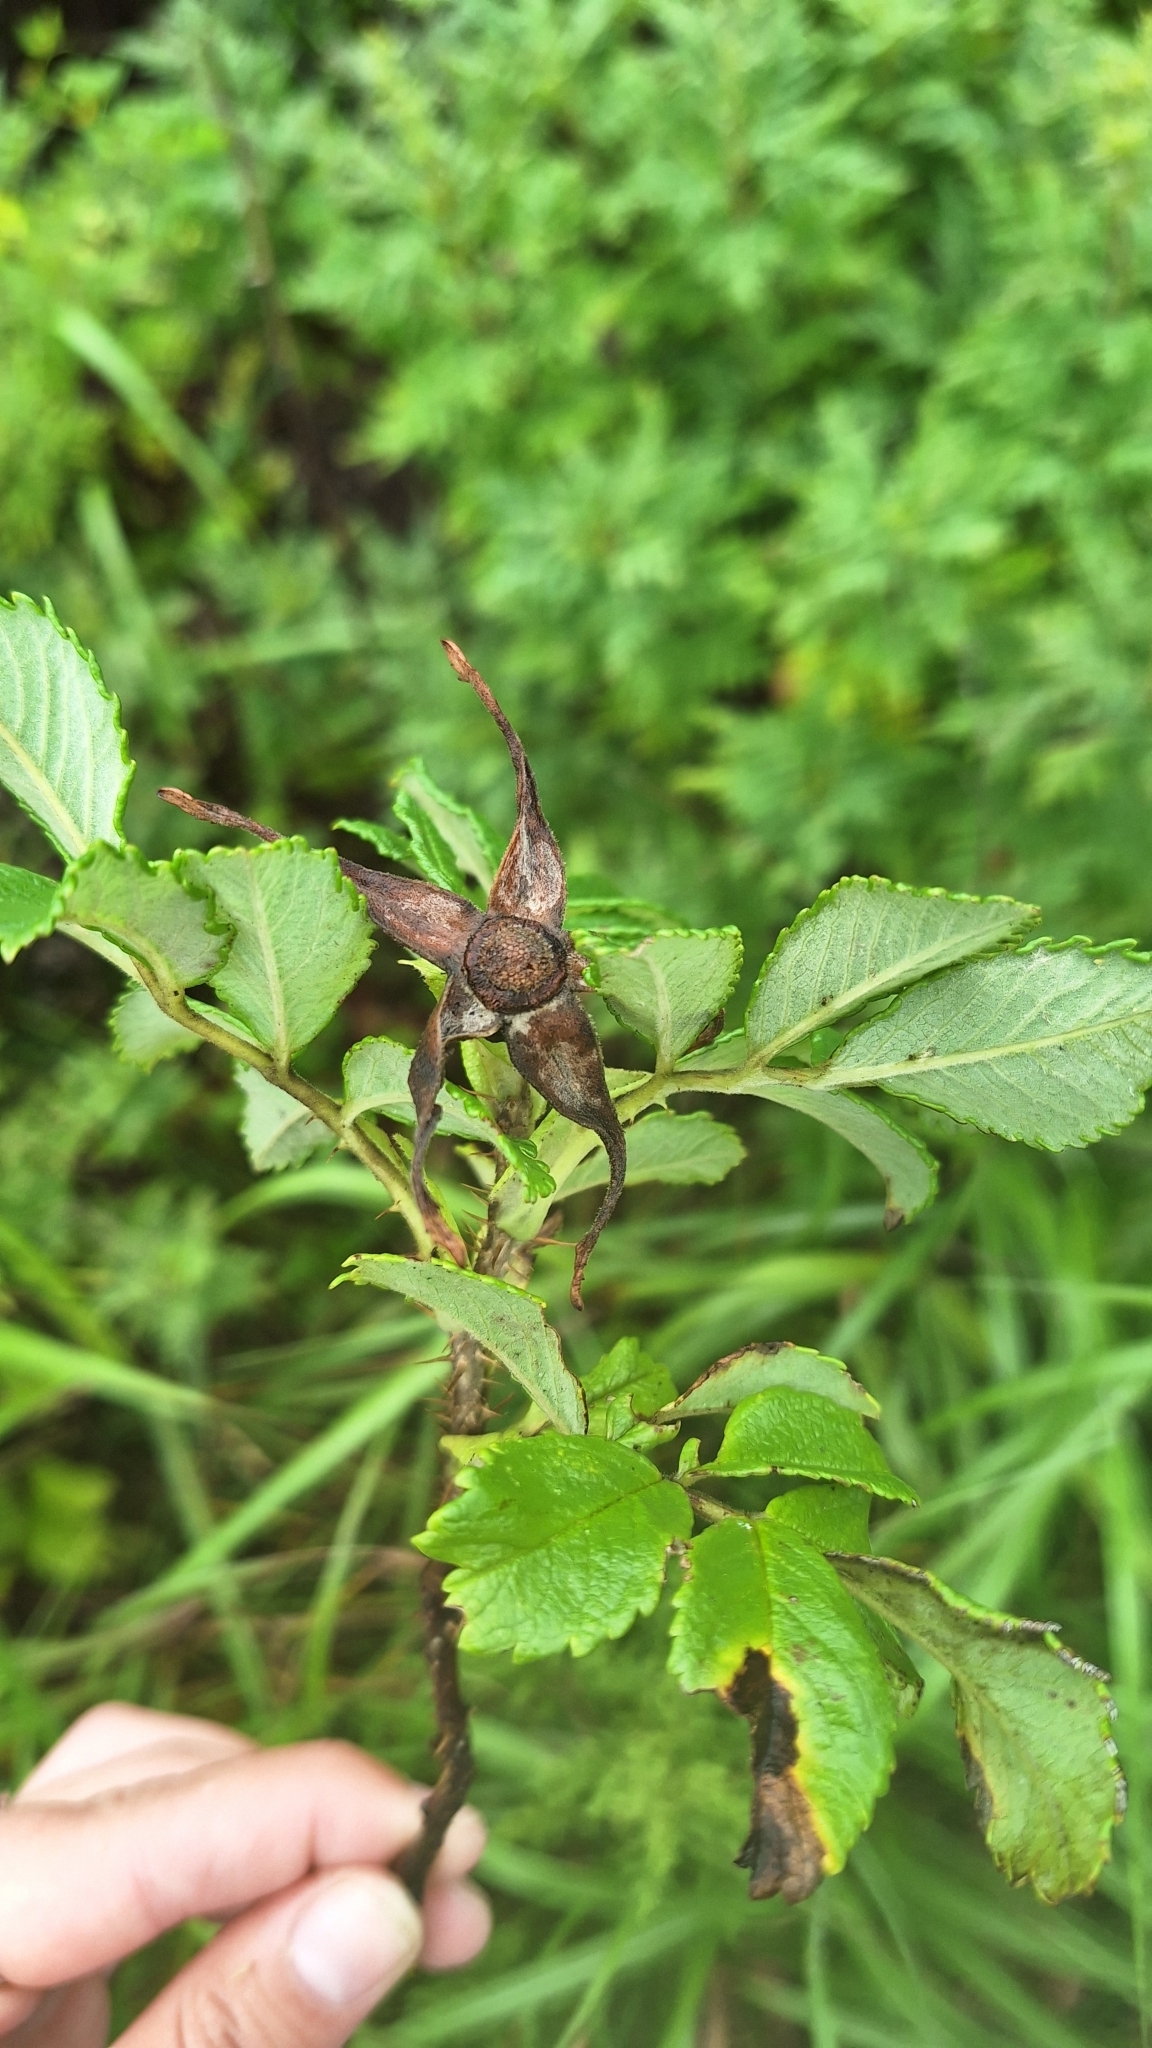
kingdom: Plantae
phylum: Tracheophyta
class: Magnoliopsida
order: Rosales
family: Rosaceae
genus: Rosa
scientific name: Rosa archipelagica
